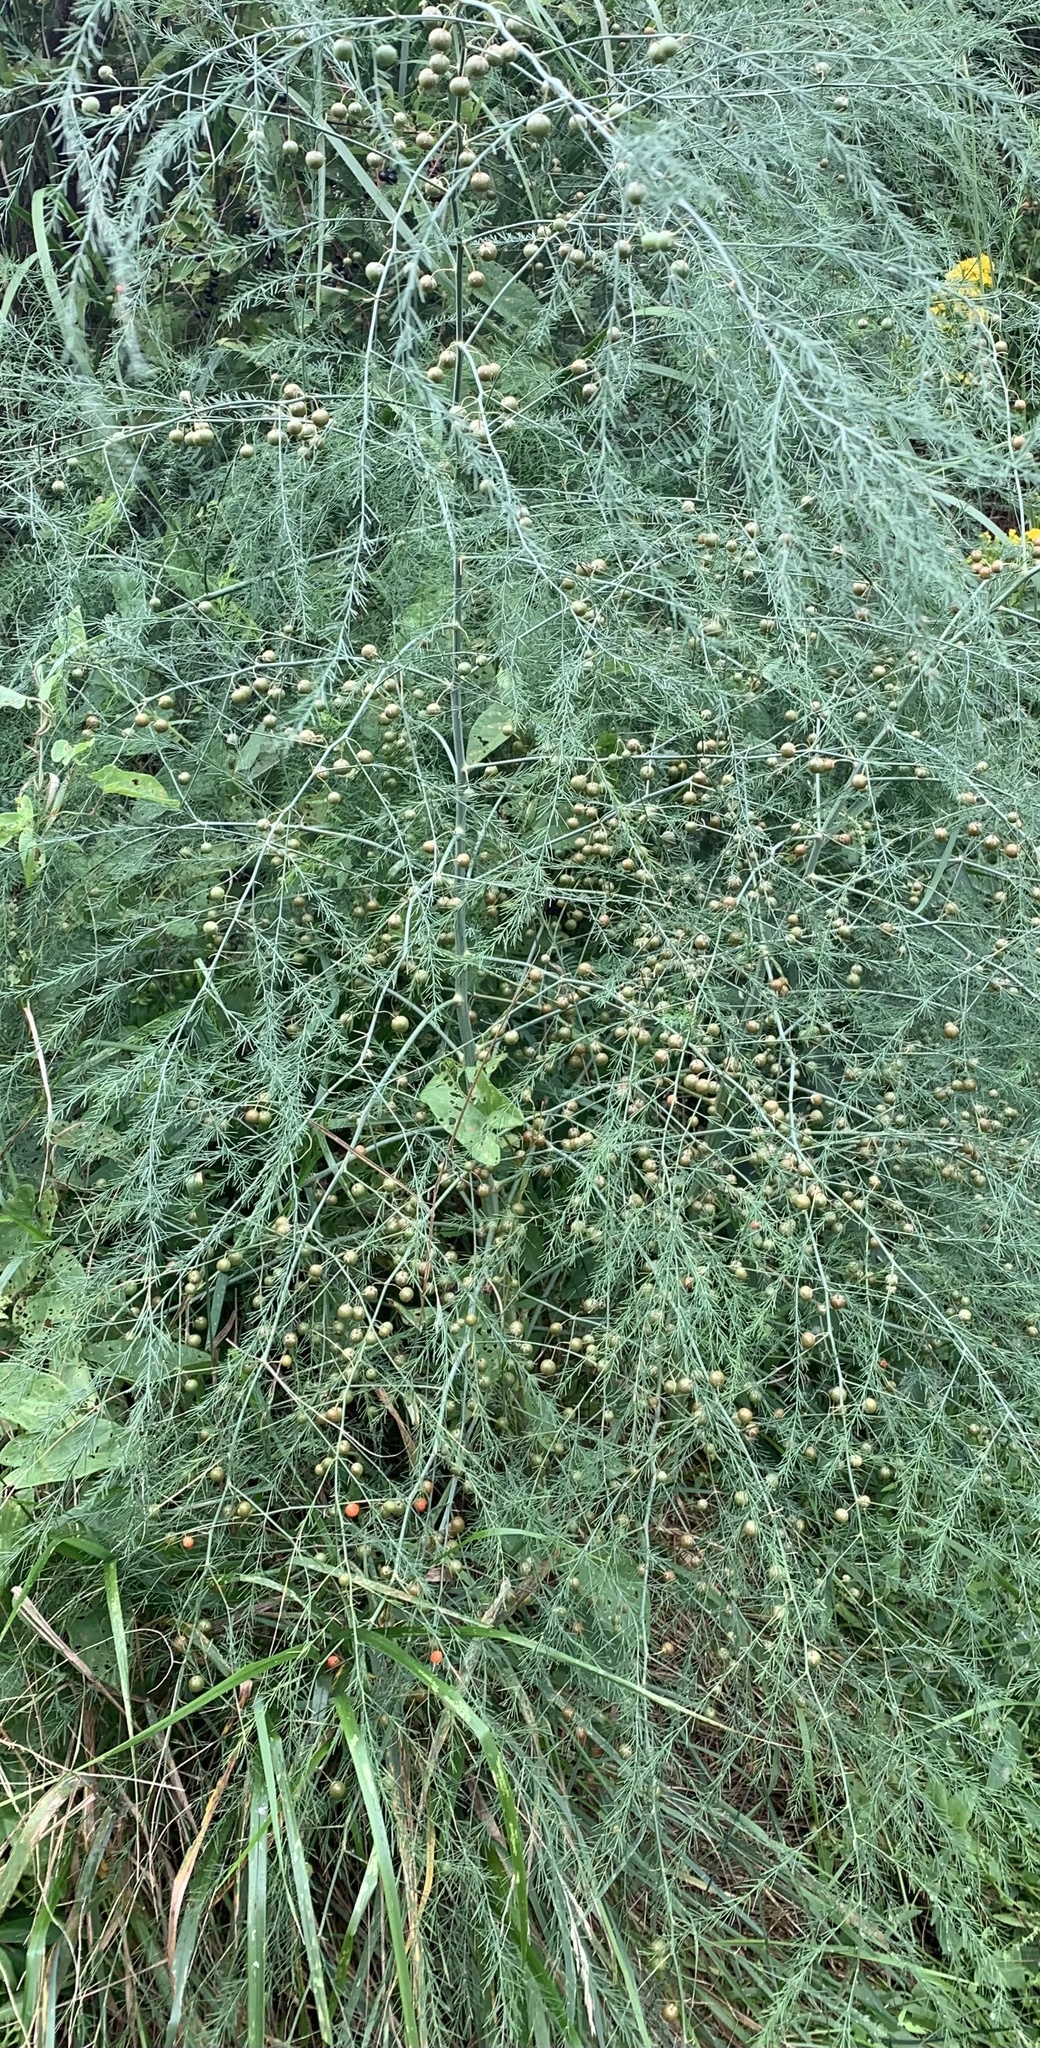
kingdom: Plantae
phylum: Tracheophyta
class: Liliopsida
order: Asparagales
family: Asparagaceae
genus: Asparagus
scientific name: Asparagus officinalis
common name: Garden asparagus
